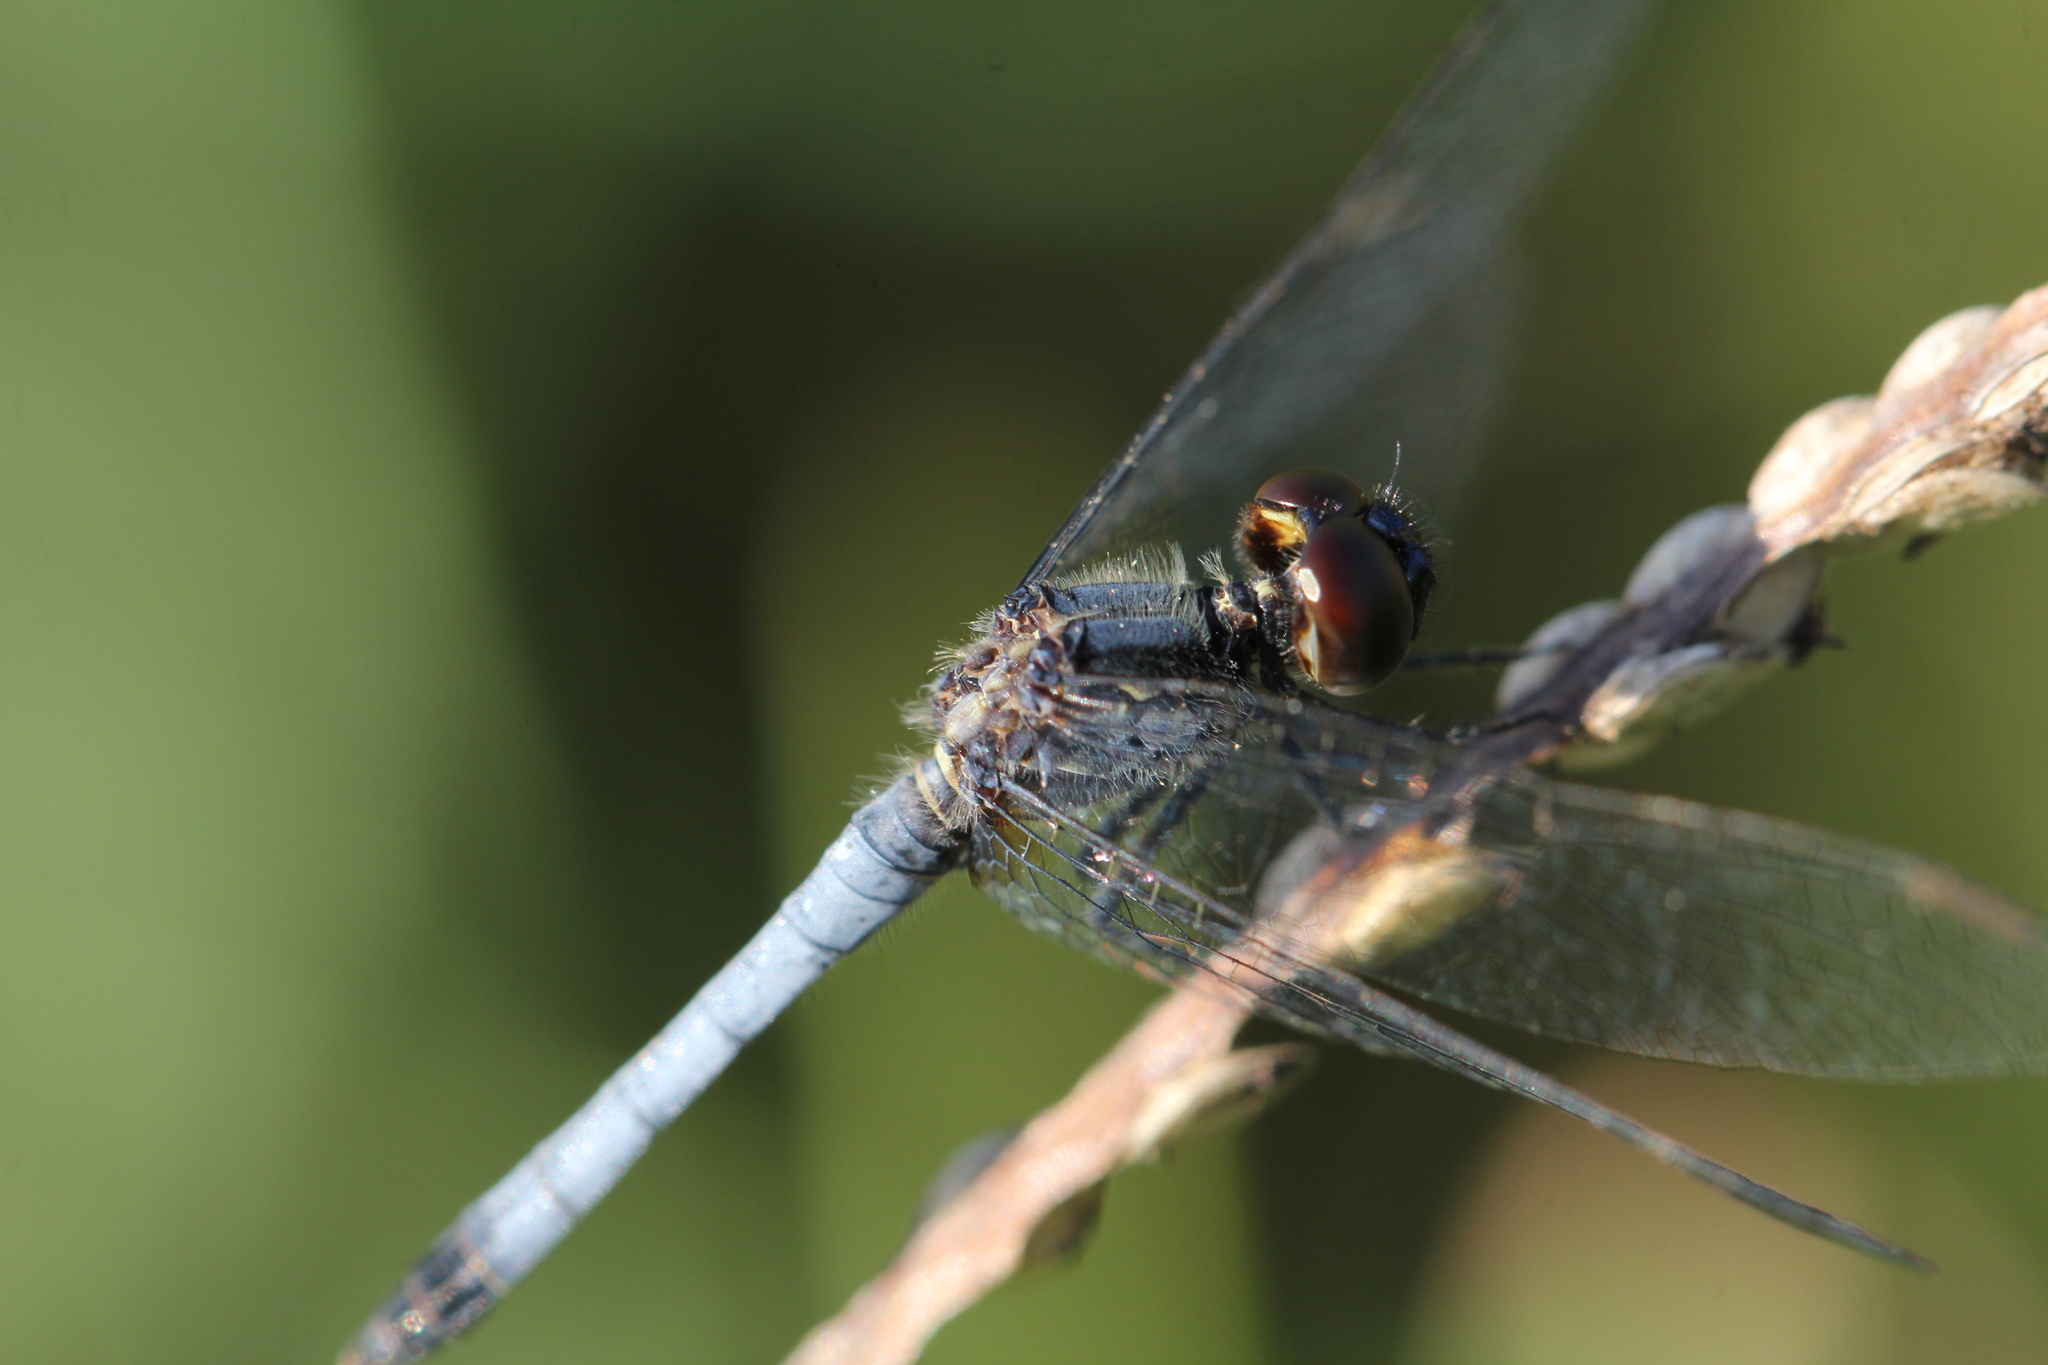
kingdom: Animalia
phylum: Arthropoda
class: Insecta
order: Odonata
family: Libellulidae
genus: Erythrodiplax
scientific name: Erythrodiplax paraguayensis
